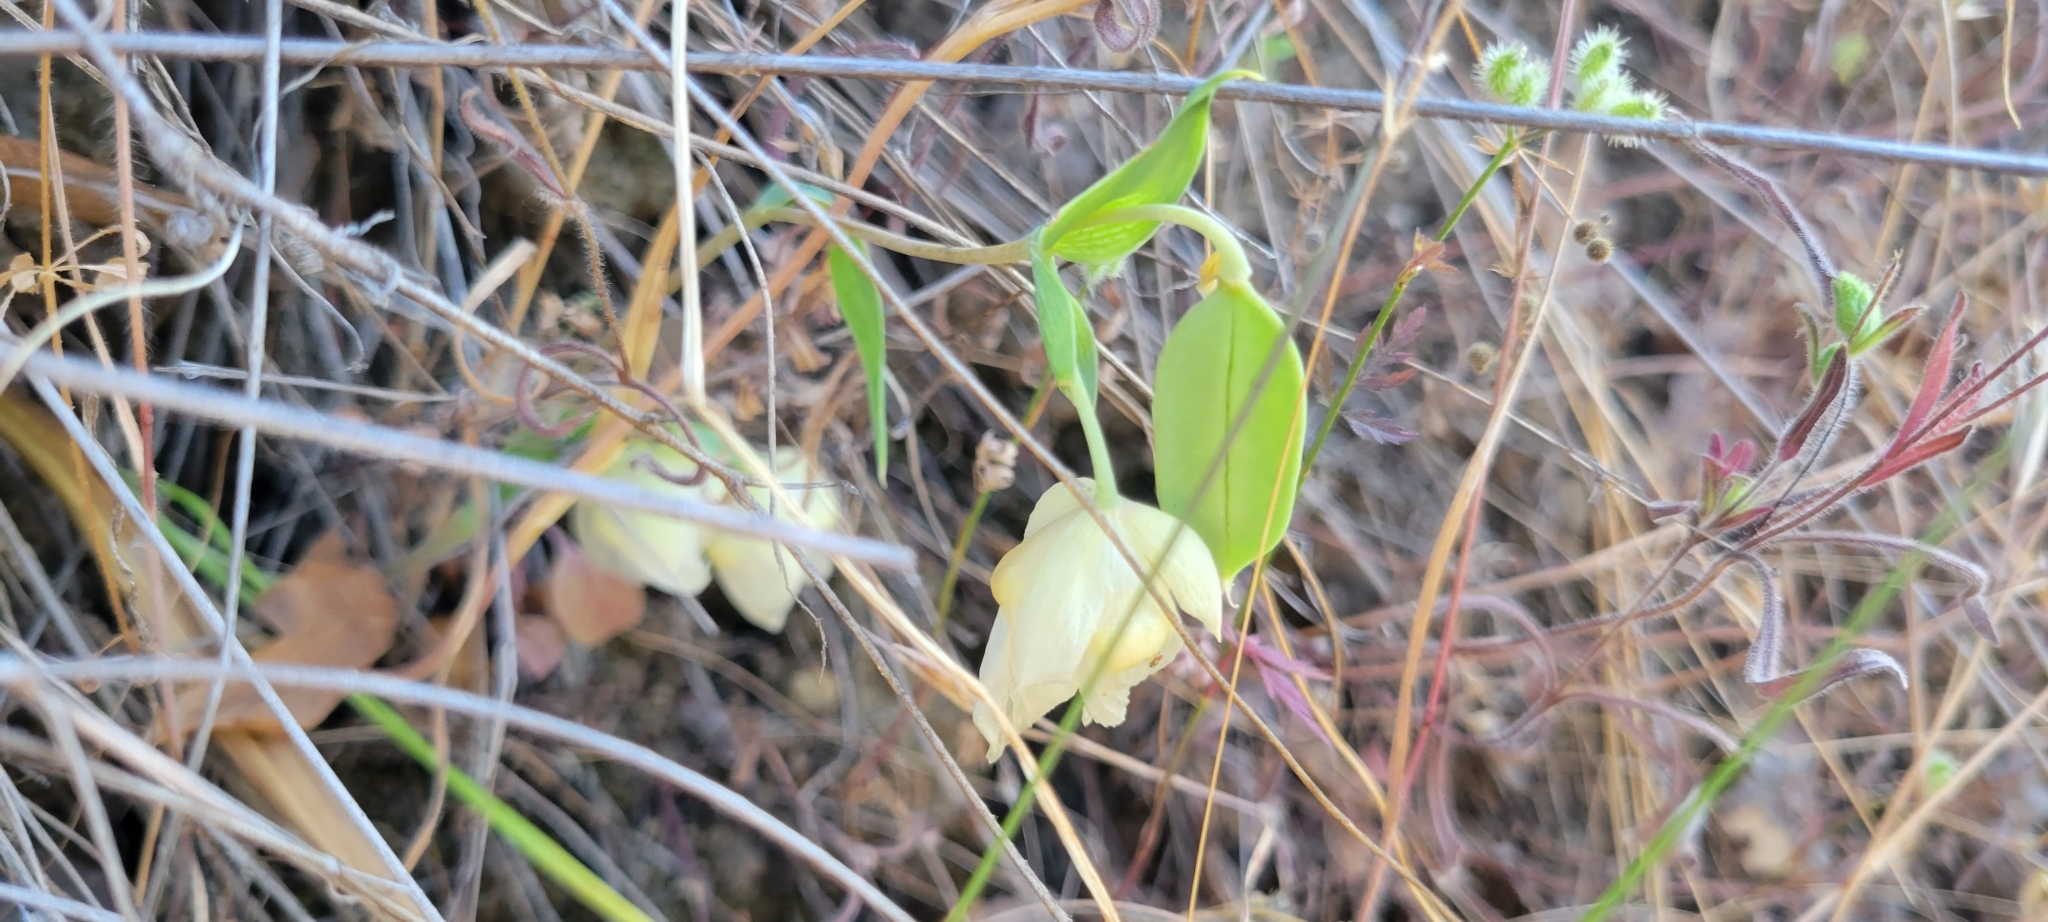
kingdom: Plantae
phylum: Tracheophyta
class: Liliopsida
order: Liliales
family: Liliaceae
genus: Calochortus
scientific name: Calochortus albus
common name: Fairy-lantern
